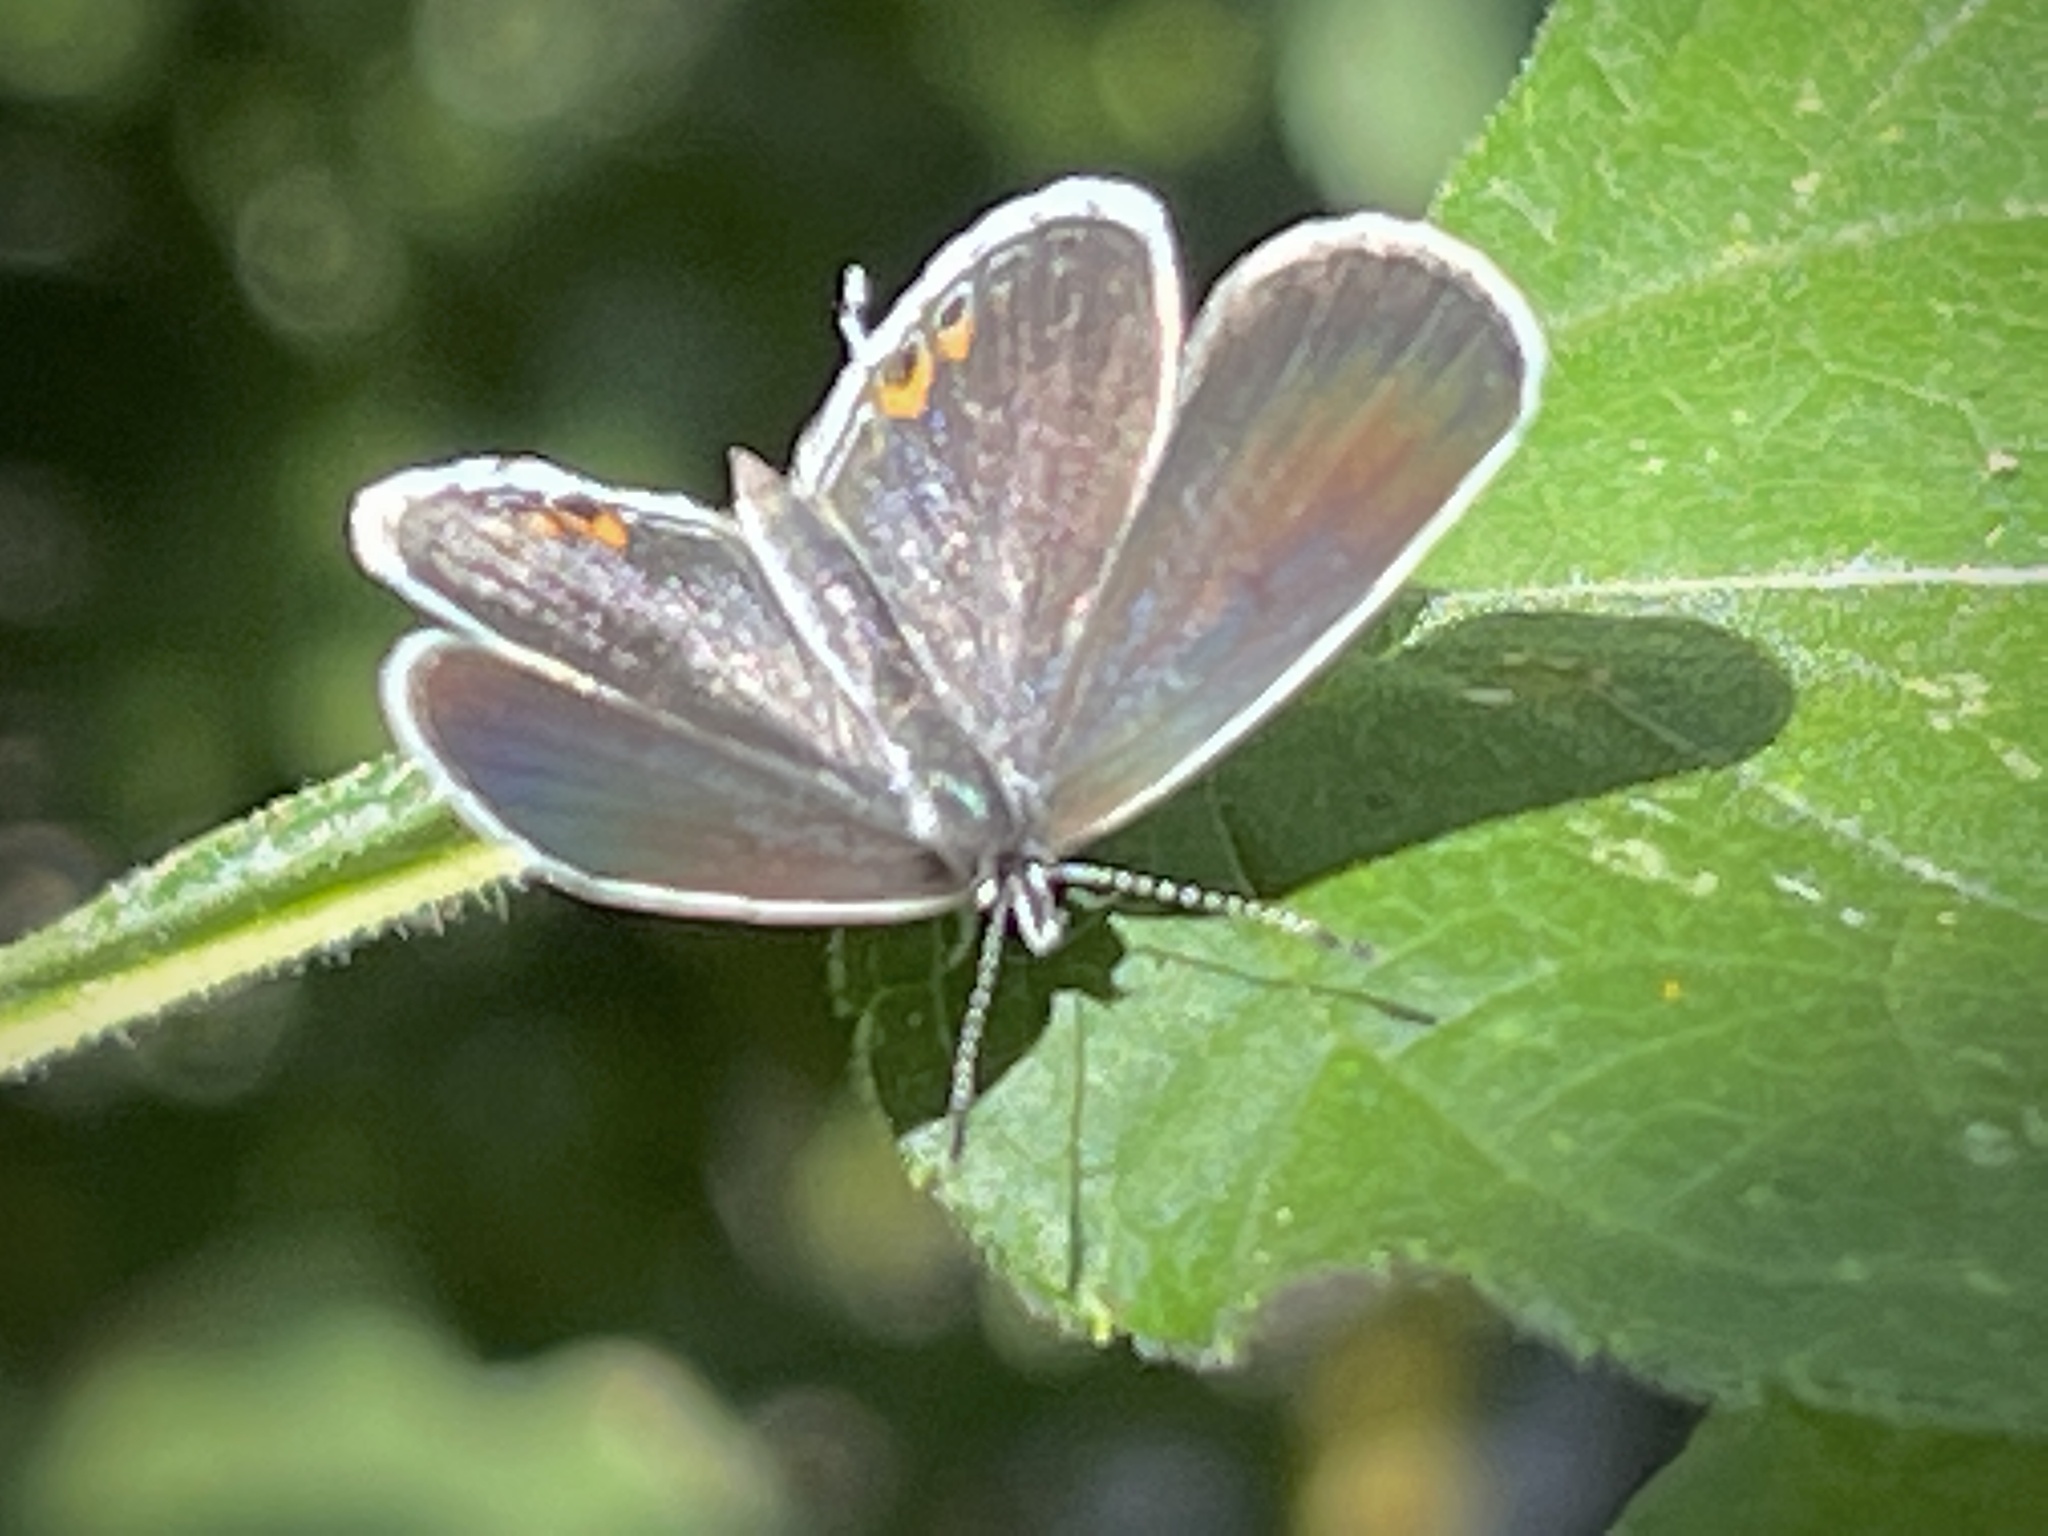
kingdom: Animalia
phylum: Arthropoda
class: Insecta
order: Lepidoptera
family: Lycaenidae
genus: Elkalyce
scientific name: Elkalyce comyntas
